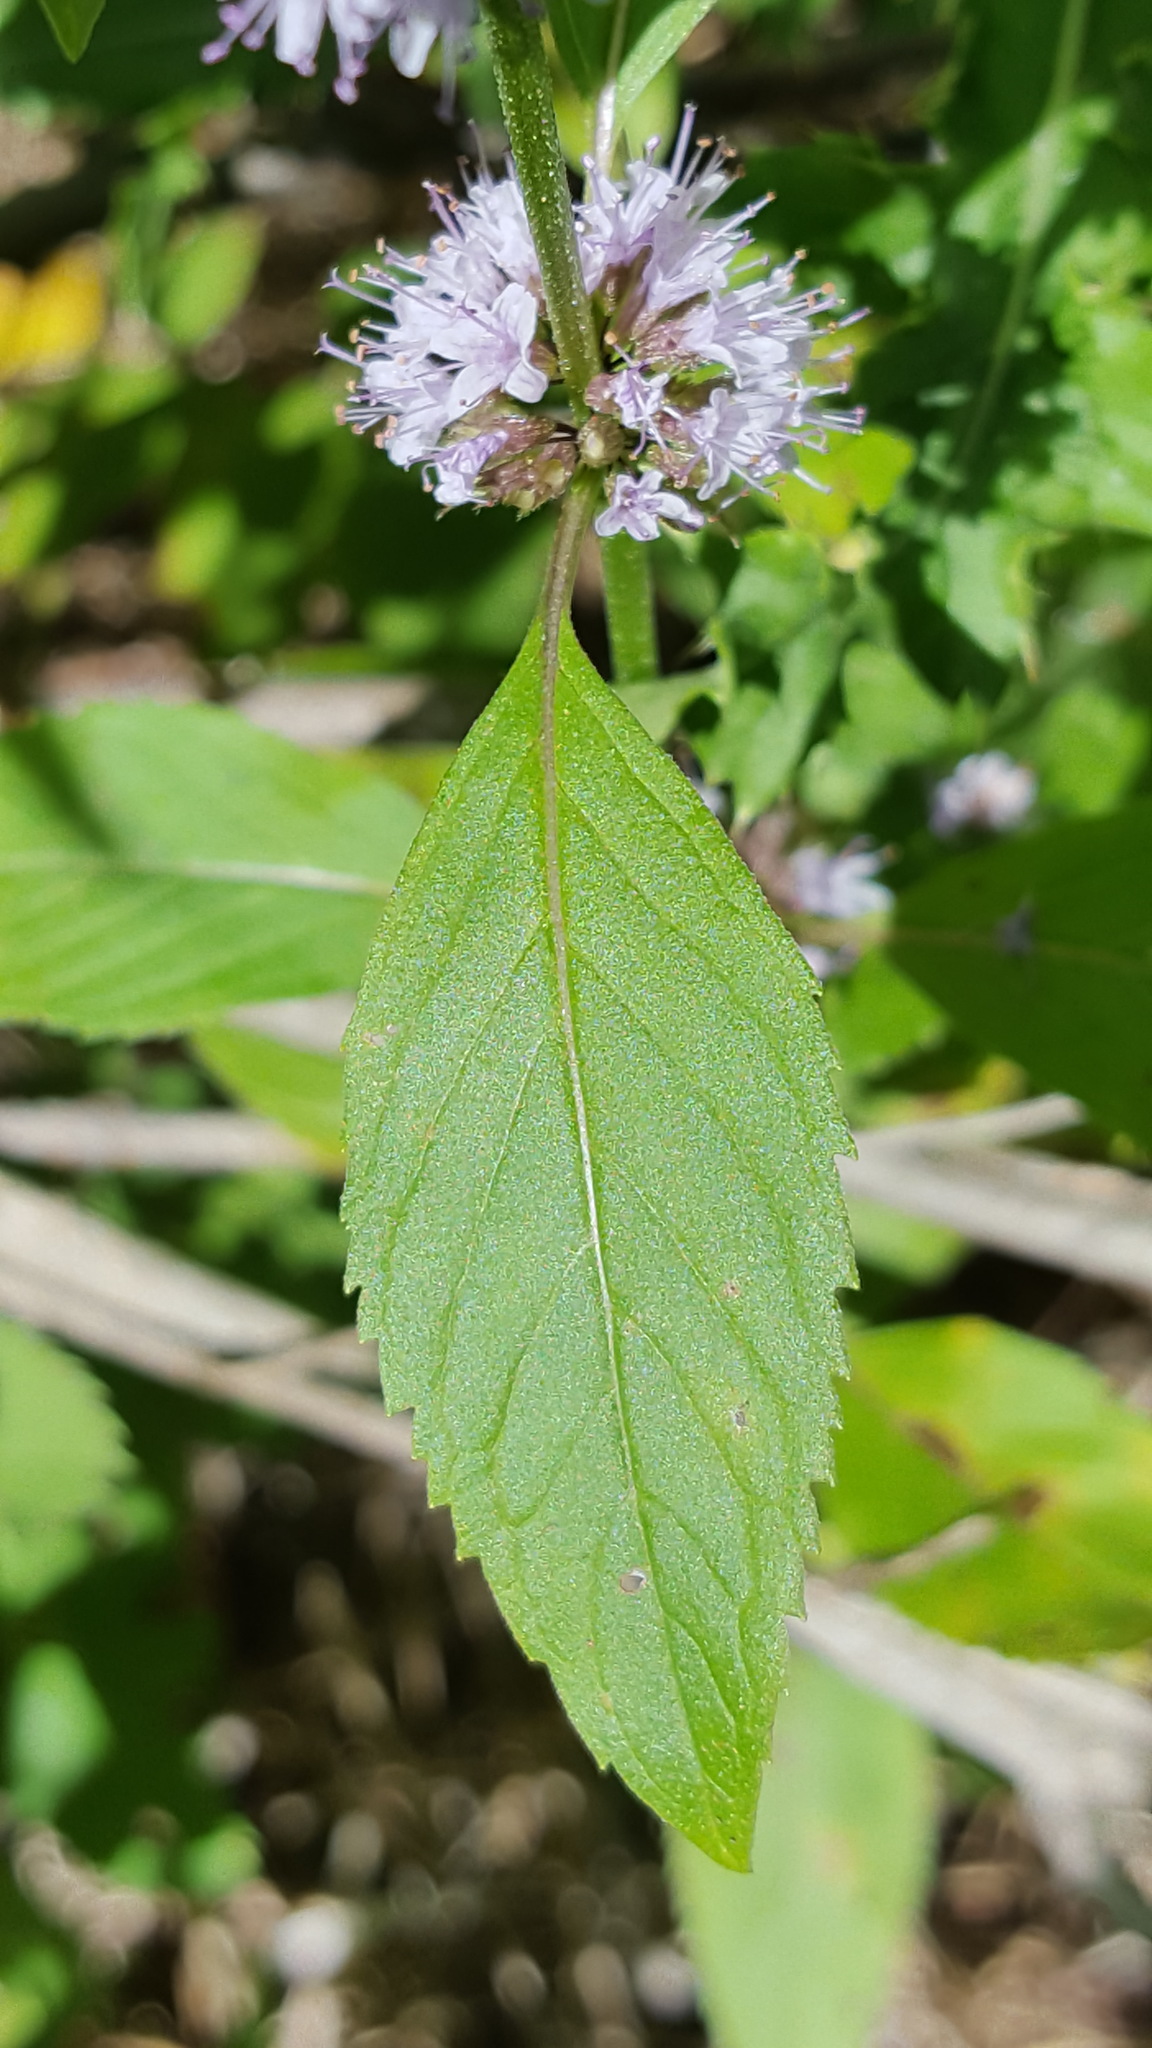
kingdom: Plantae
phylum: Tracheophyta
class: Magnoliopsida
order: Lamiales
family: Lamiaceae
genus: Mentha
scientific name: Mentha arvensis
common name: Corn mint
